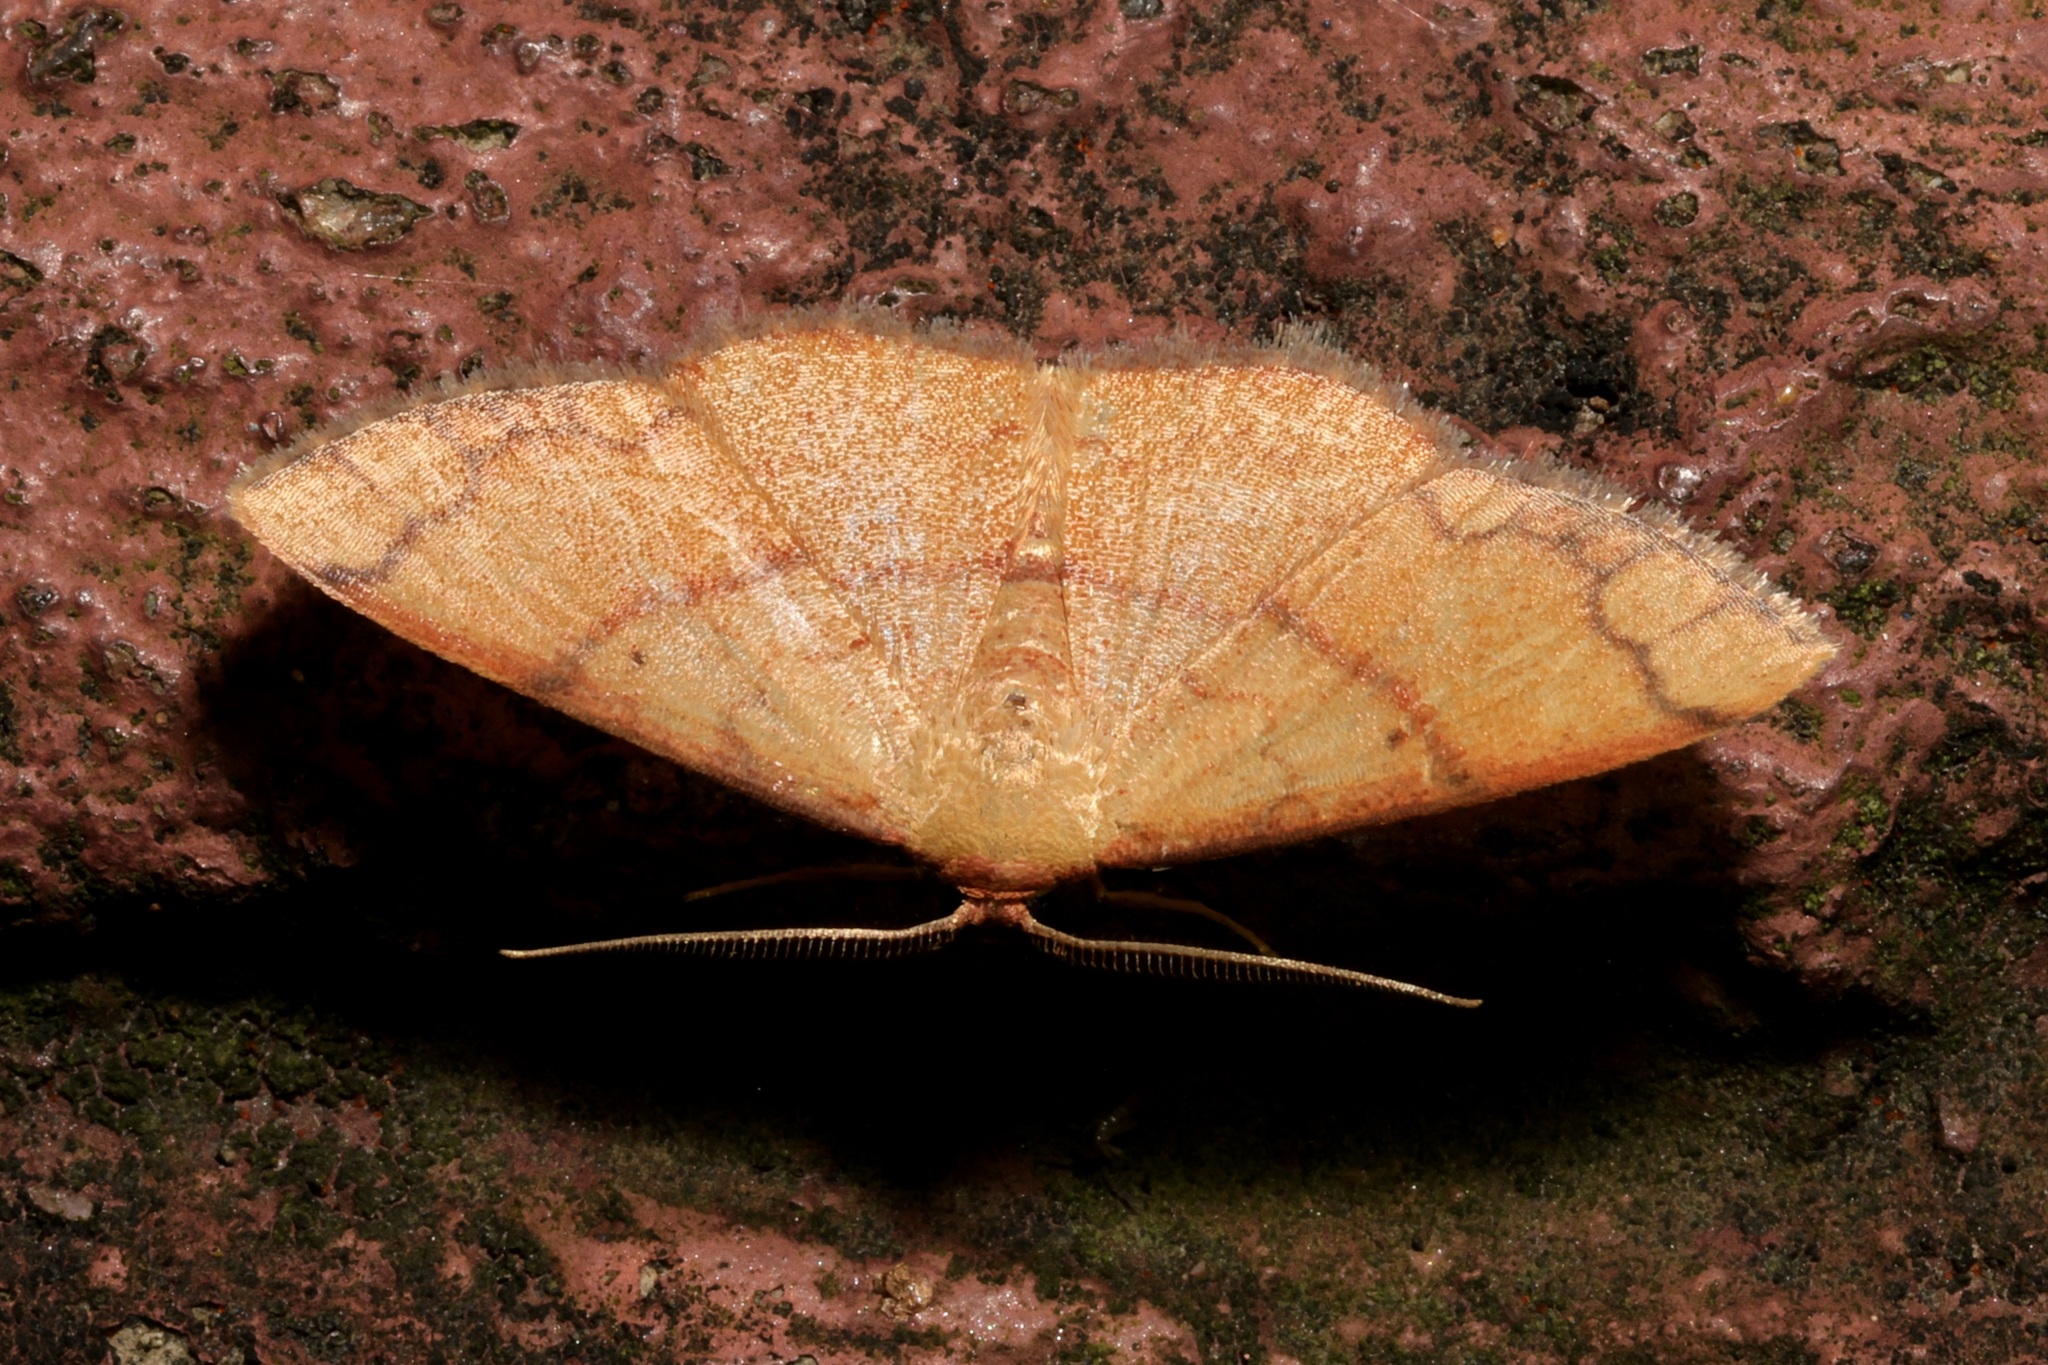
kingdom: Animalia
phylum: Arthropoda
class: Insecta
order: Lepidoptera
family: Geometridae
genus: Pylargosceles
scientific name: Pylargosceles steganioides
